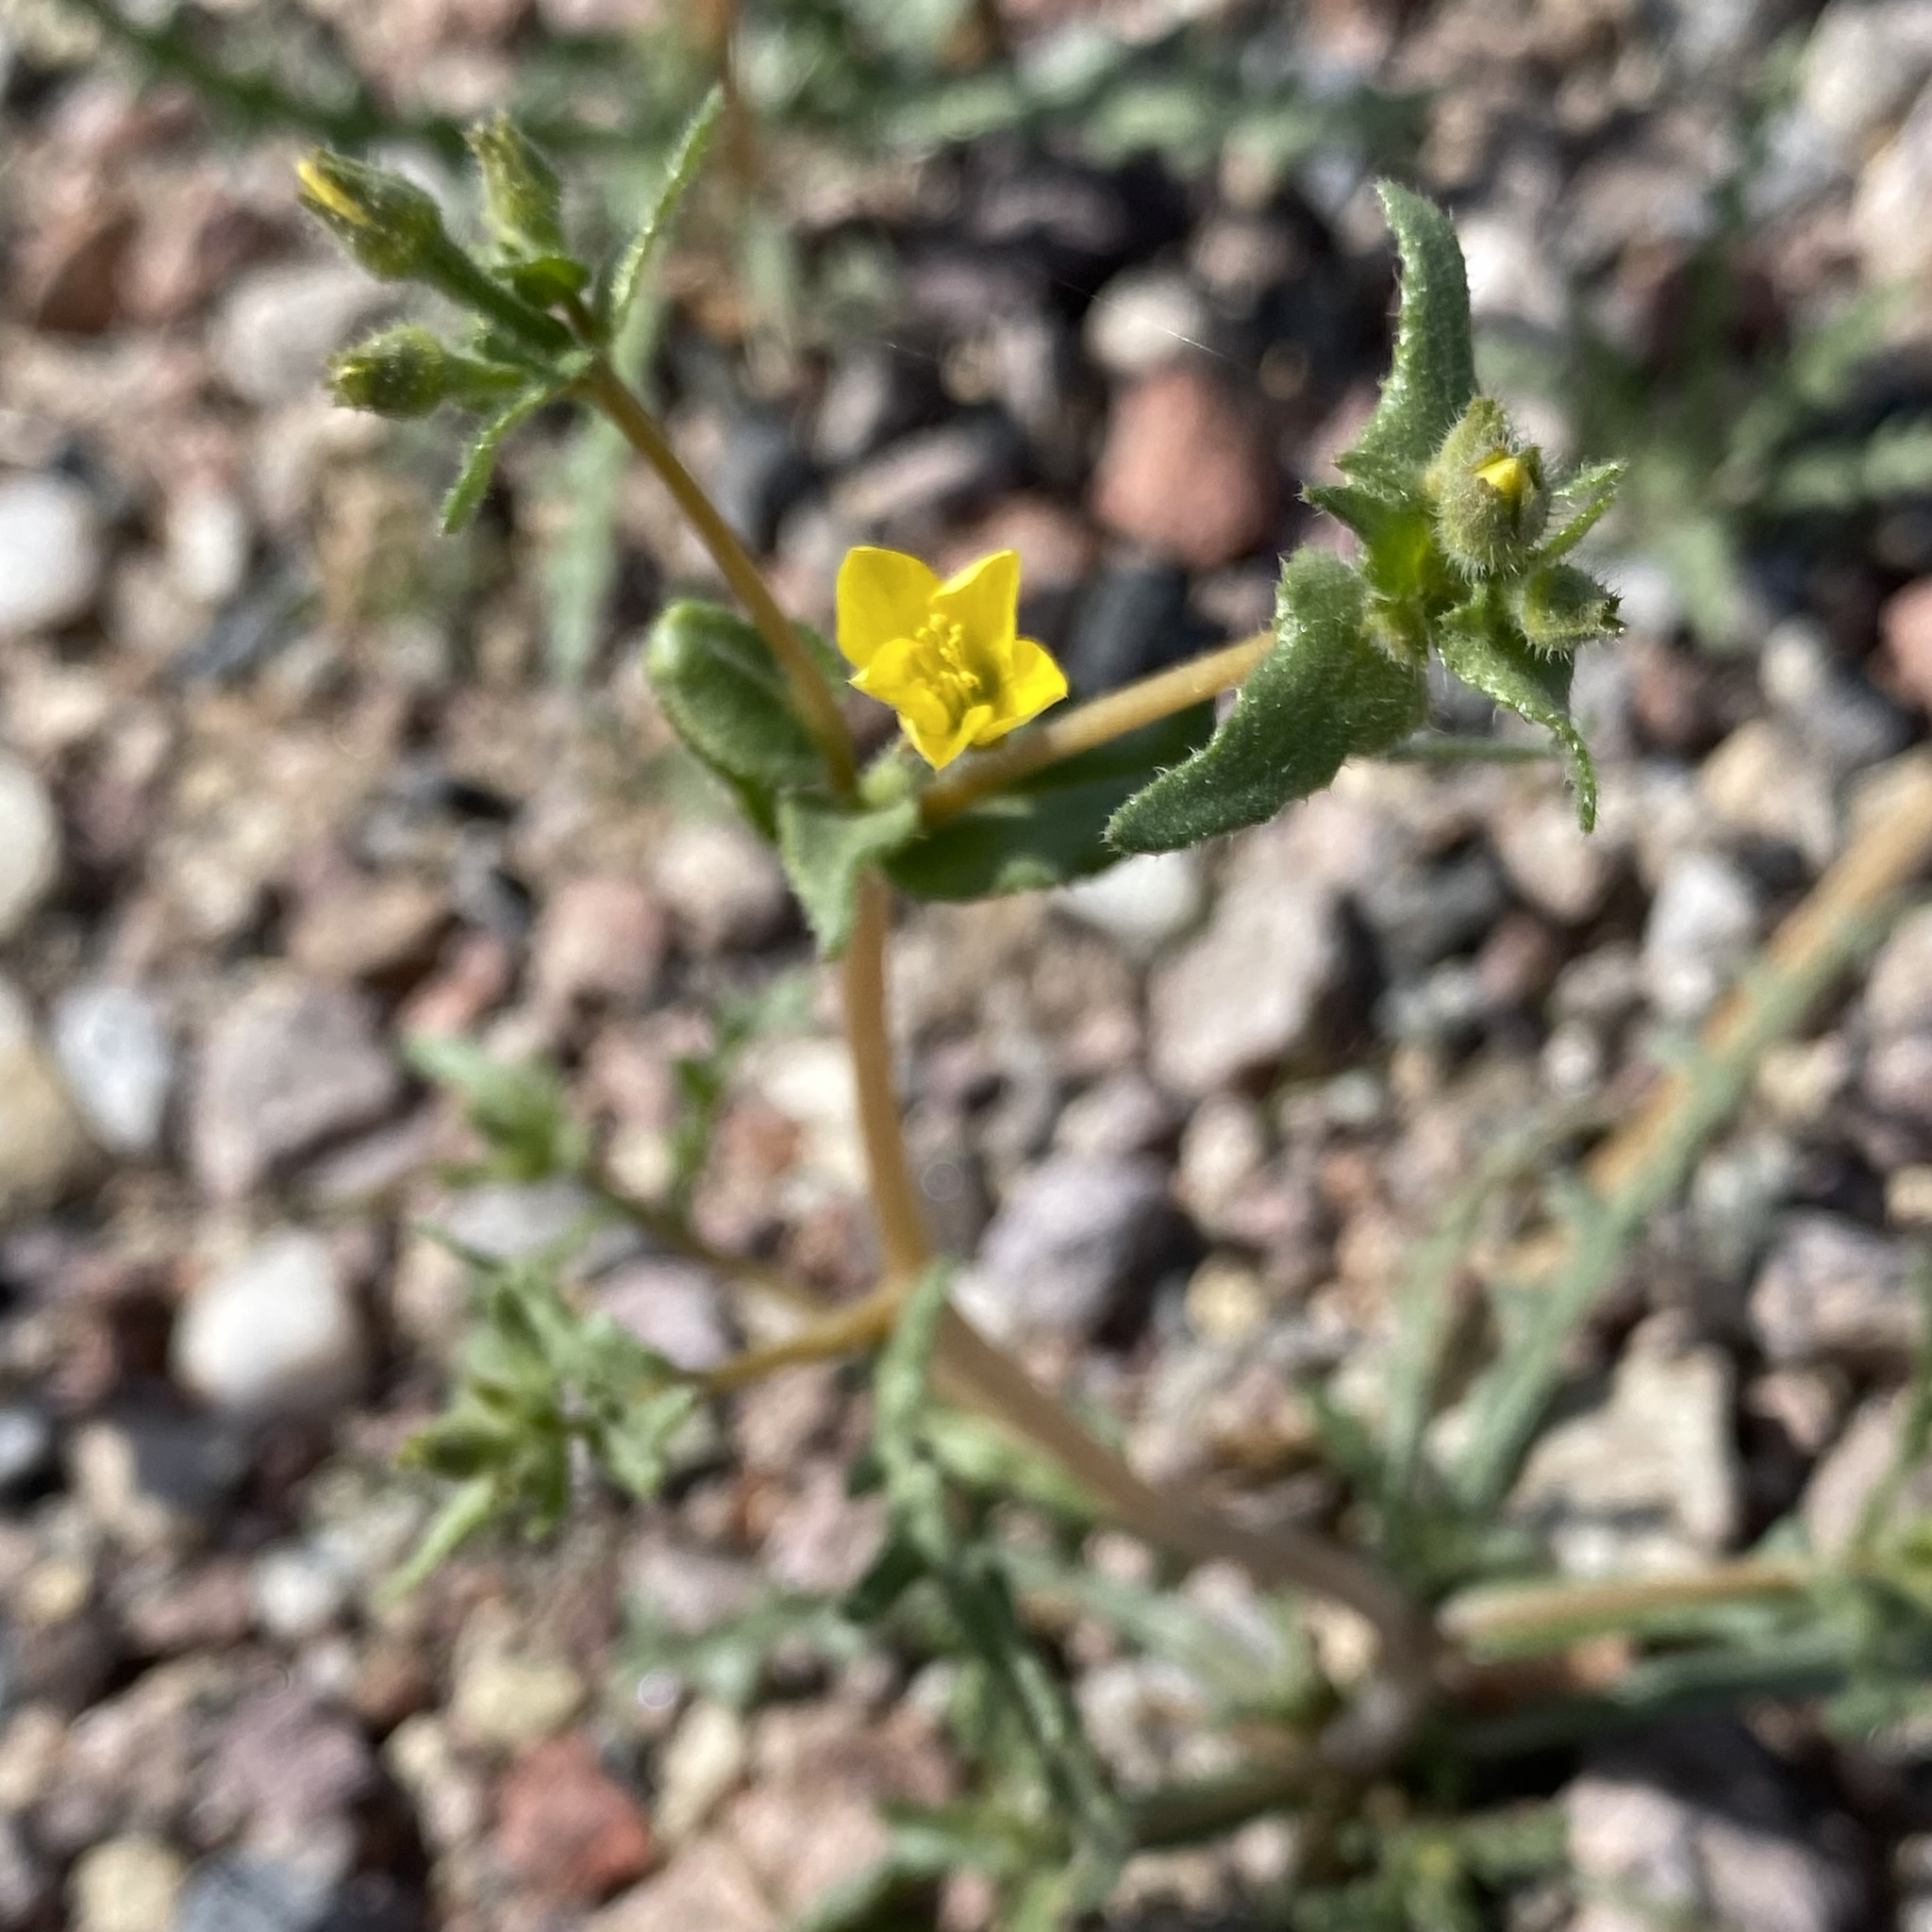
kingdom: Plantae
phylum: Tracheophyta
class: Magnoliopsida
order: Cornales
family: Loasaceae
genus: Mentzelia
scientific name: Mentzelia albicaulis
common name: White-stem blazingstar
